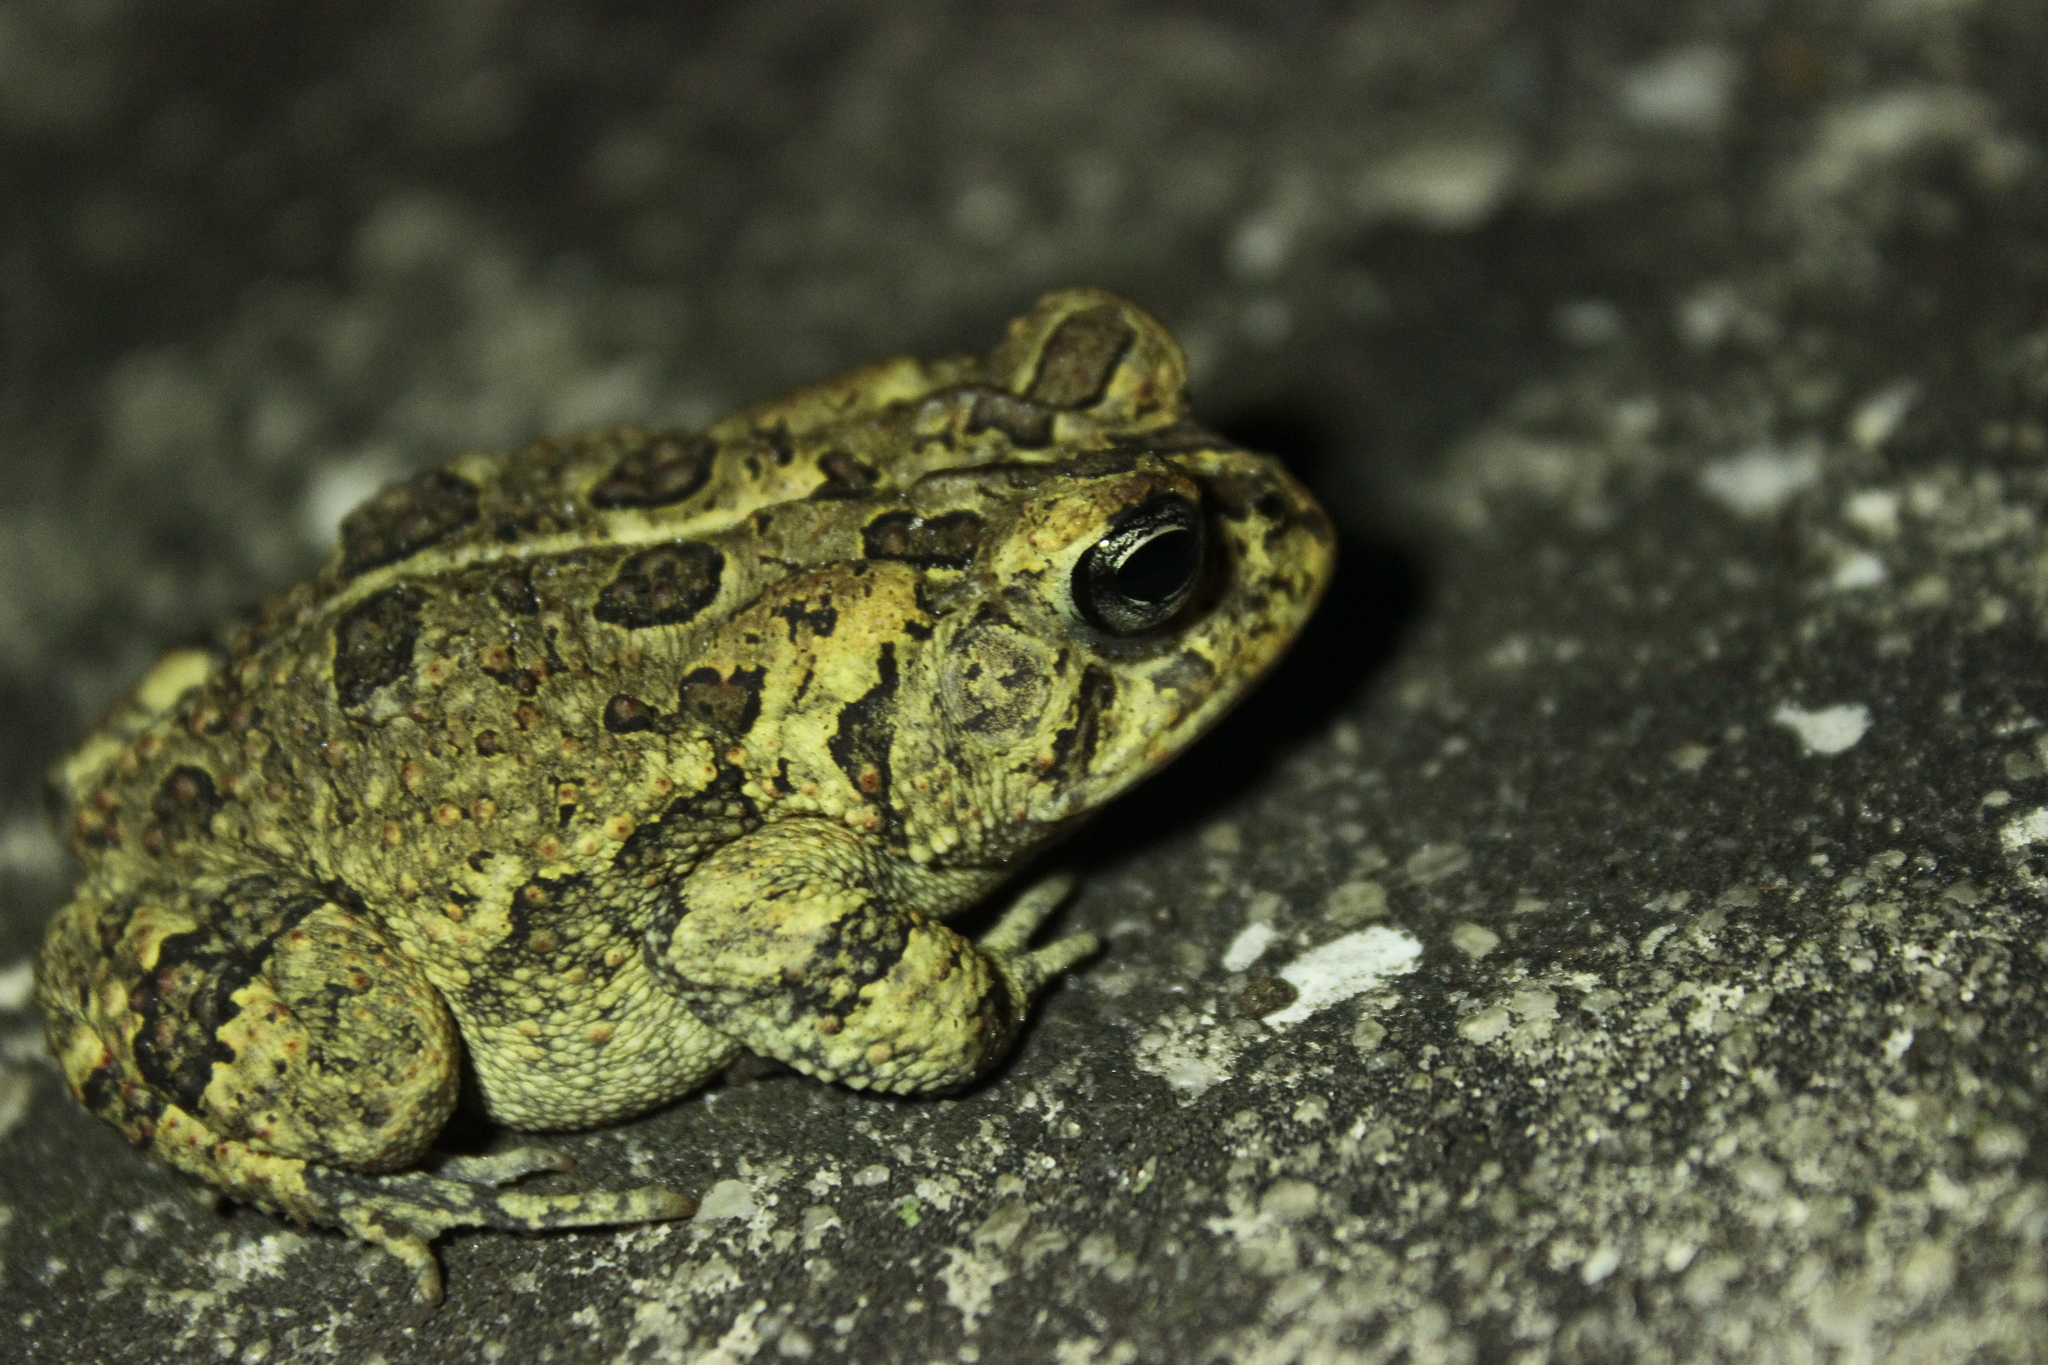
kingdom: Animalia
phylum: Chordata
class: Amphibia
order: Anura
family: Bufonidae
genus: Anaxyrus
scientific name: Anaxyrus terrestris
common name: Southern toad
